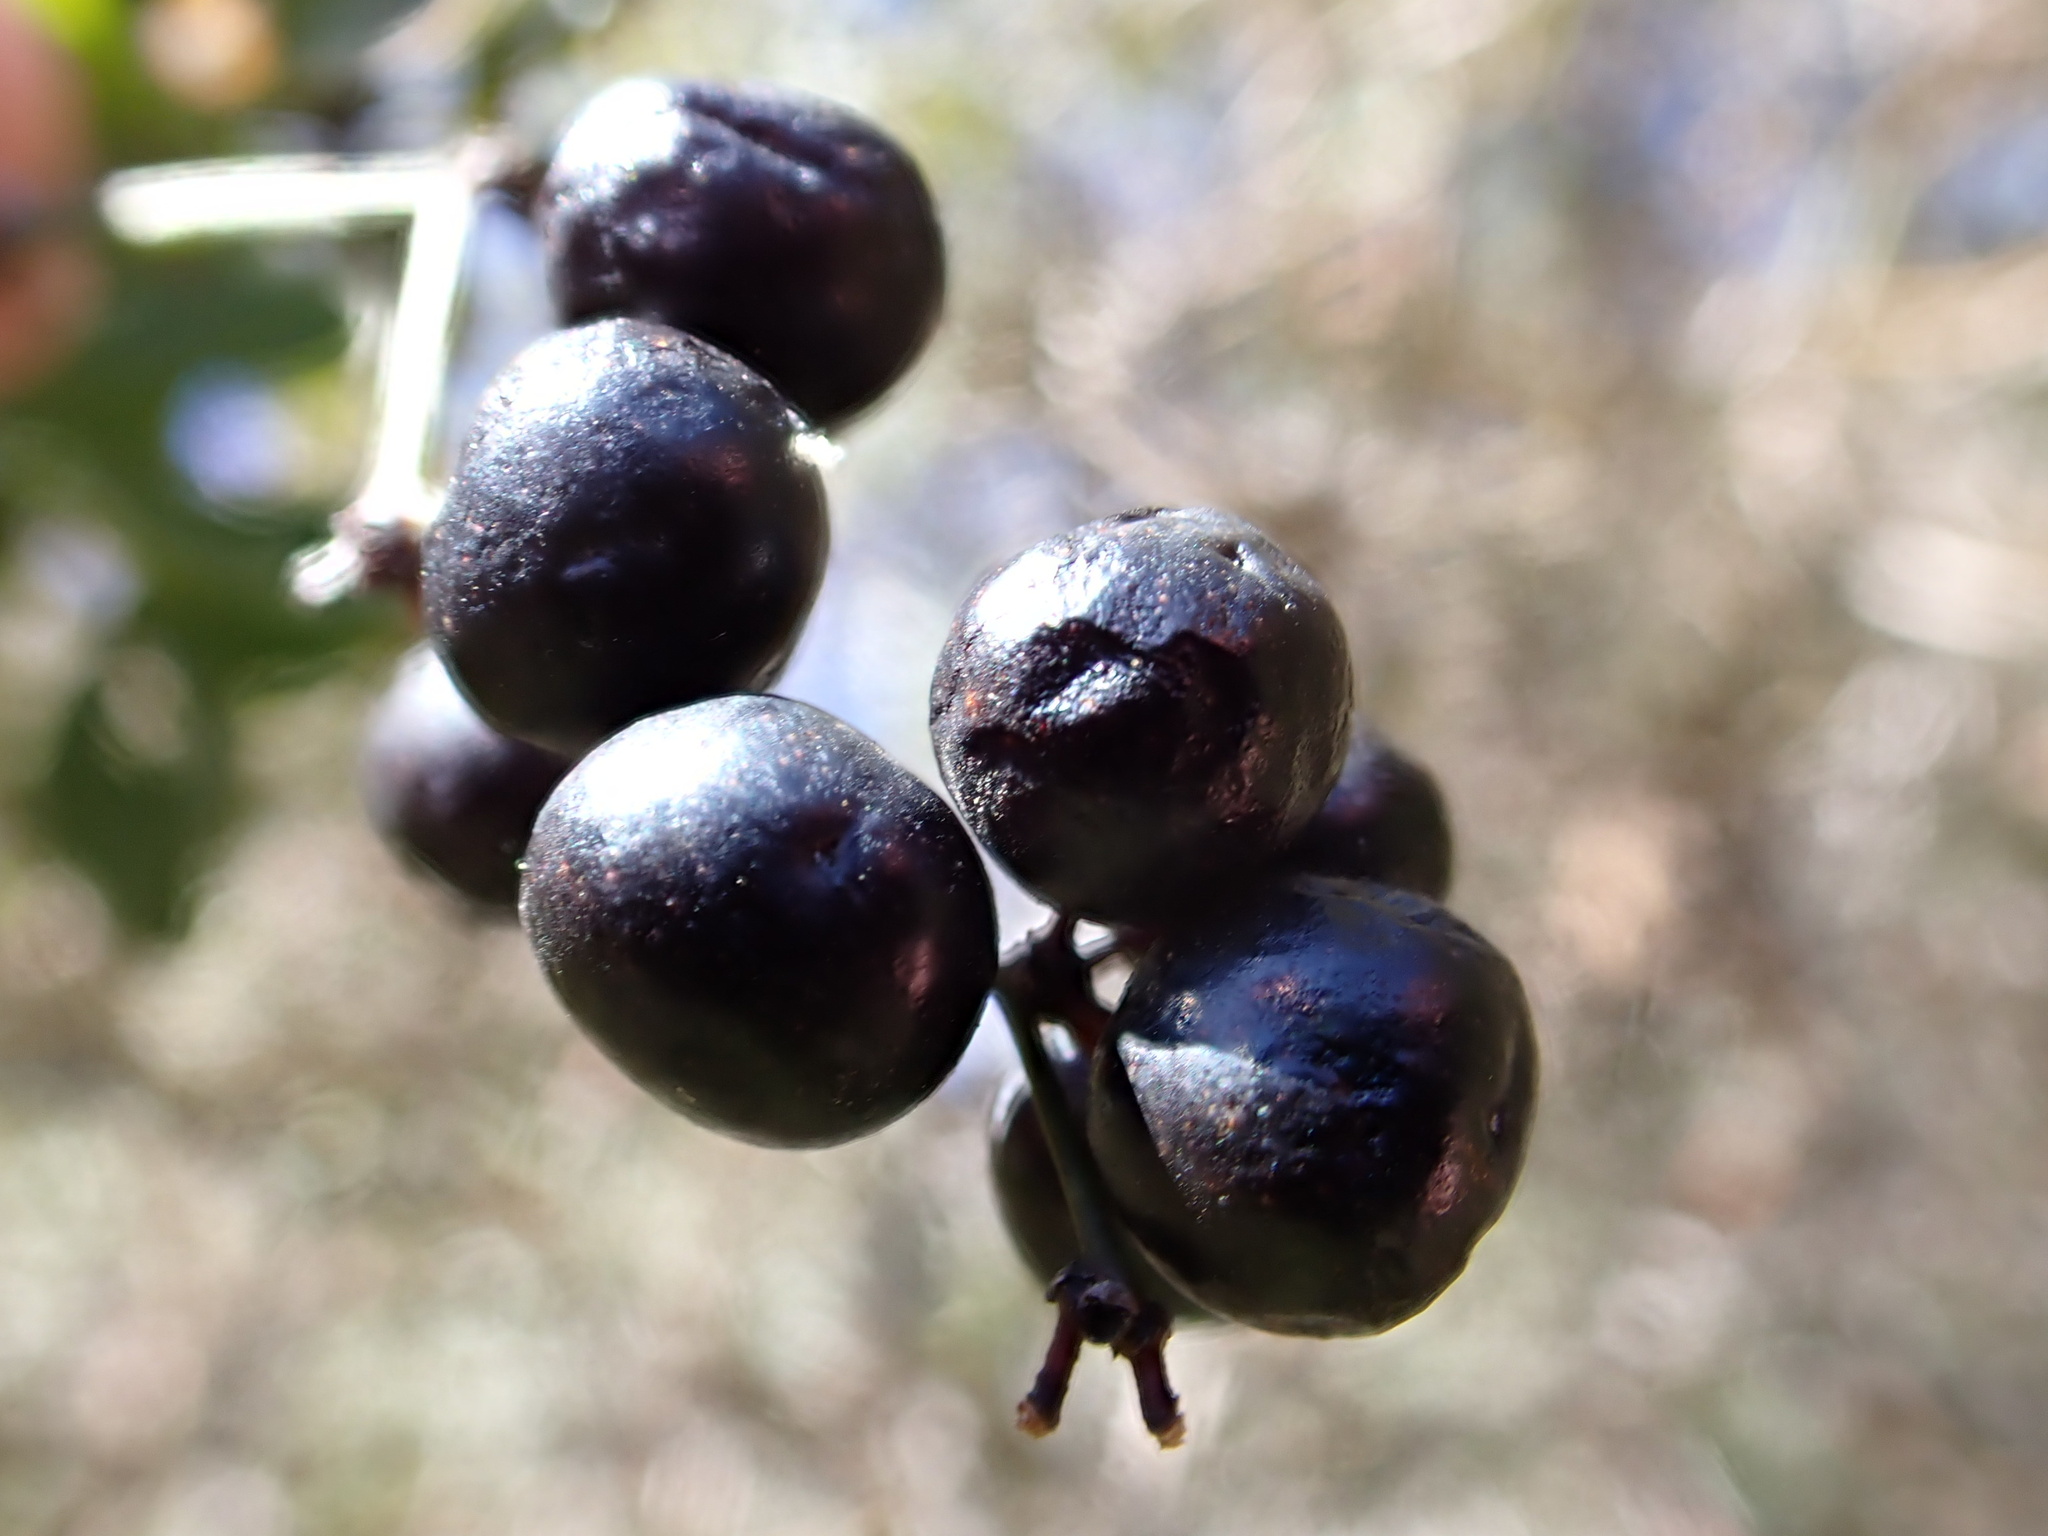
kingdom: Plantae
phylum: Tracheophyta
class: Liliopsida
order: Liliales
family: Smilacaceae
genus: Smilax
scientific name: Smilax aspera
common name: Common smilax
